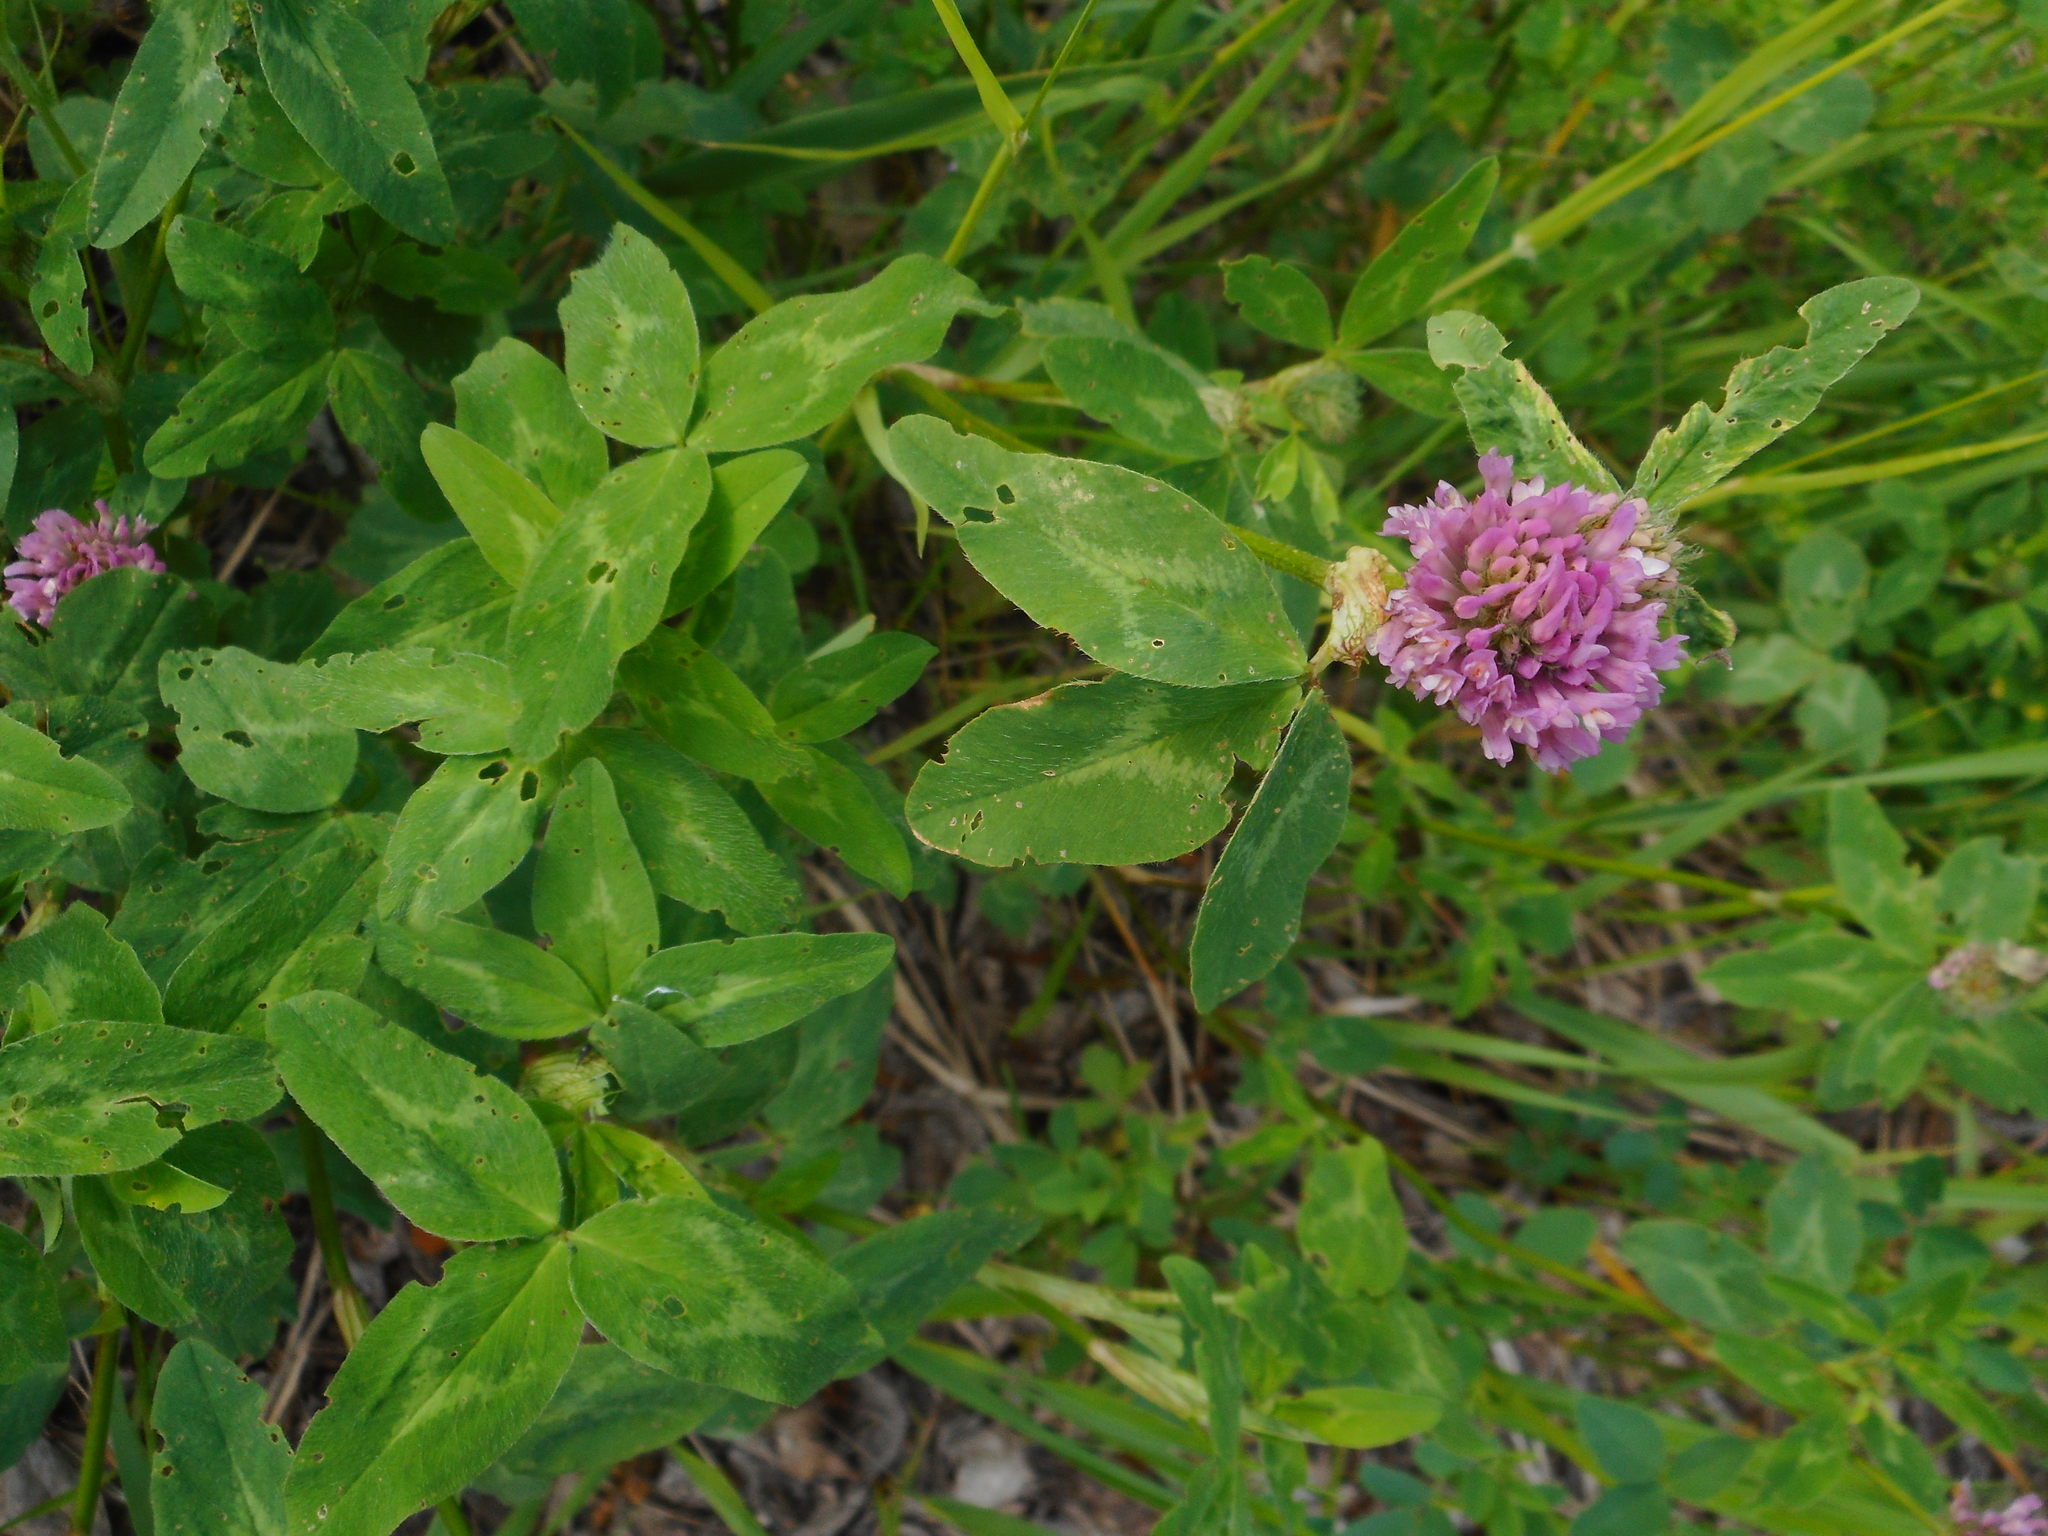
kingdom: Plantae
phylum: Tracheophyta
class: Magnoliopsida
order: Fabales
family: Fabaceae
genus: Trifolium
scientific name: Trifolium pratense
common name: Red clover
